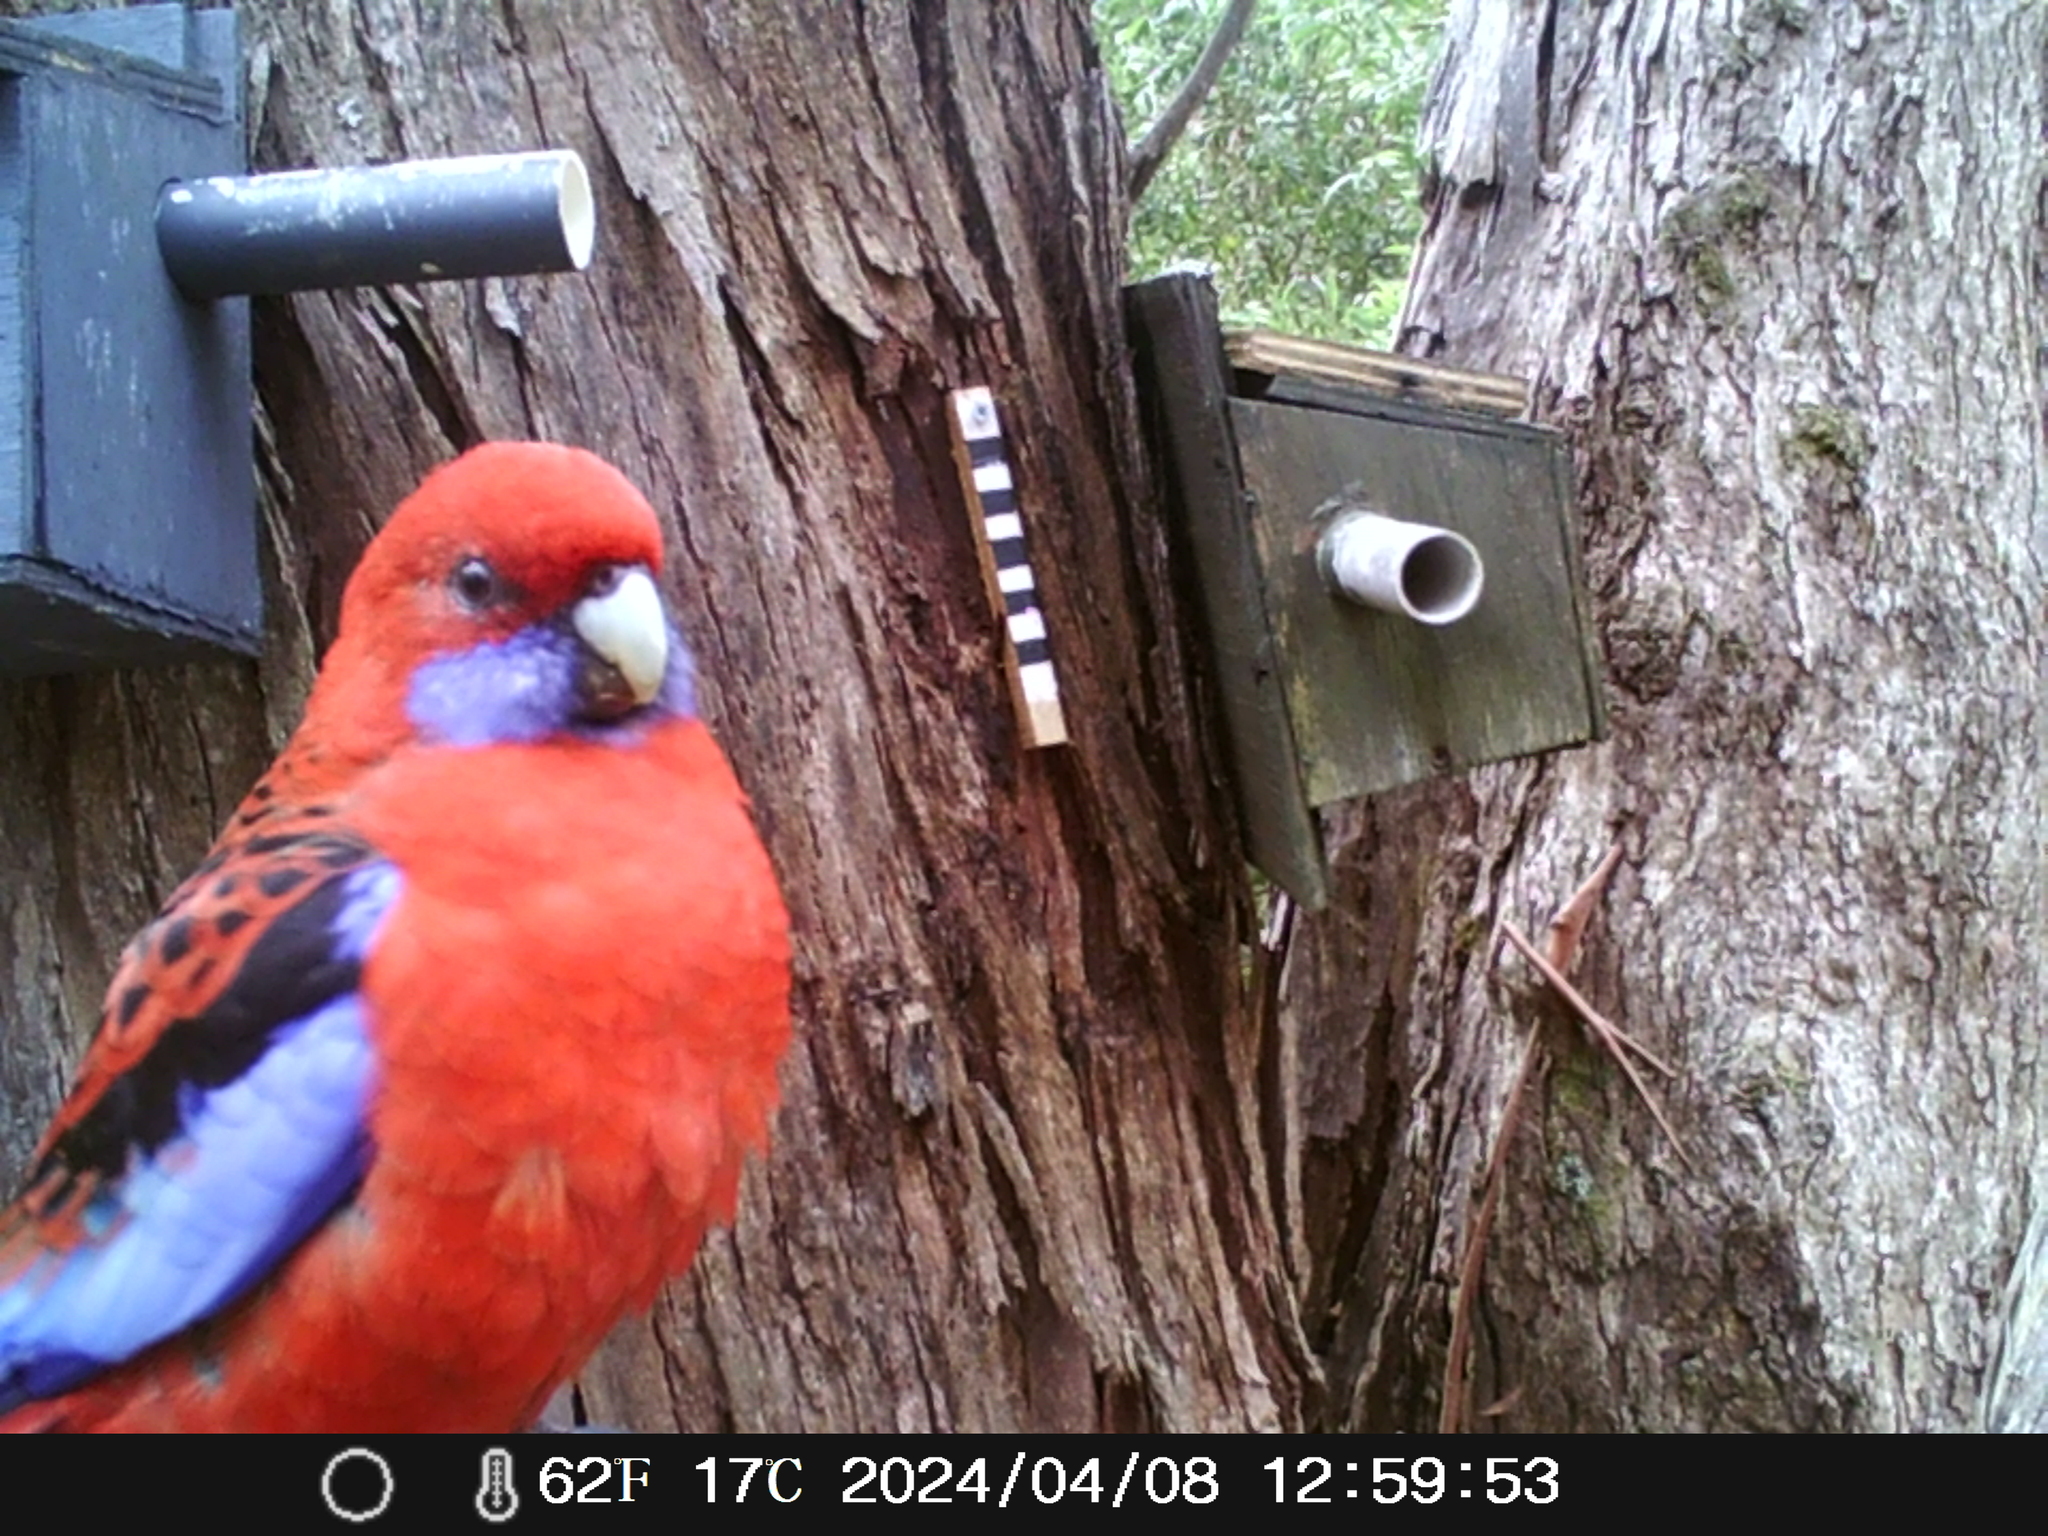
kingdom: Animalia
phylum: Chordata
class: Aves
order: Psittaciformes
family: Psittacidae
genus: Platycercus
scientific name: Platycercus elegans
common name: Crimson rosella
